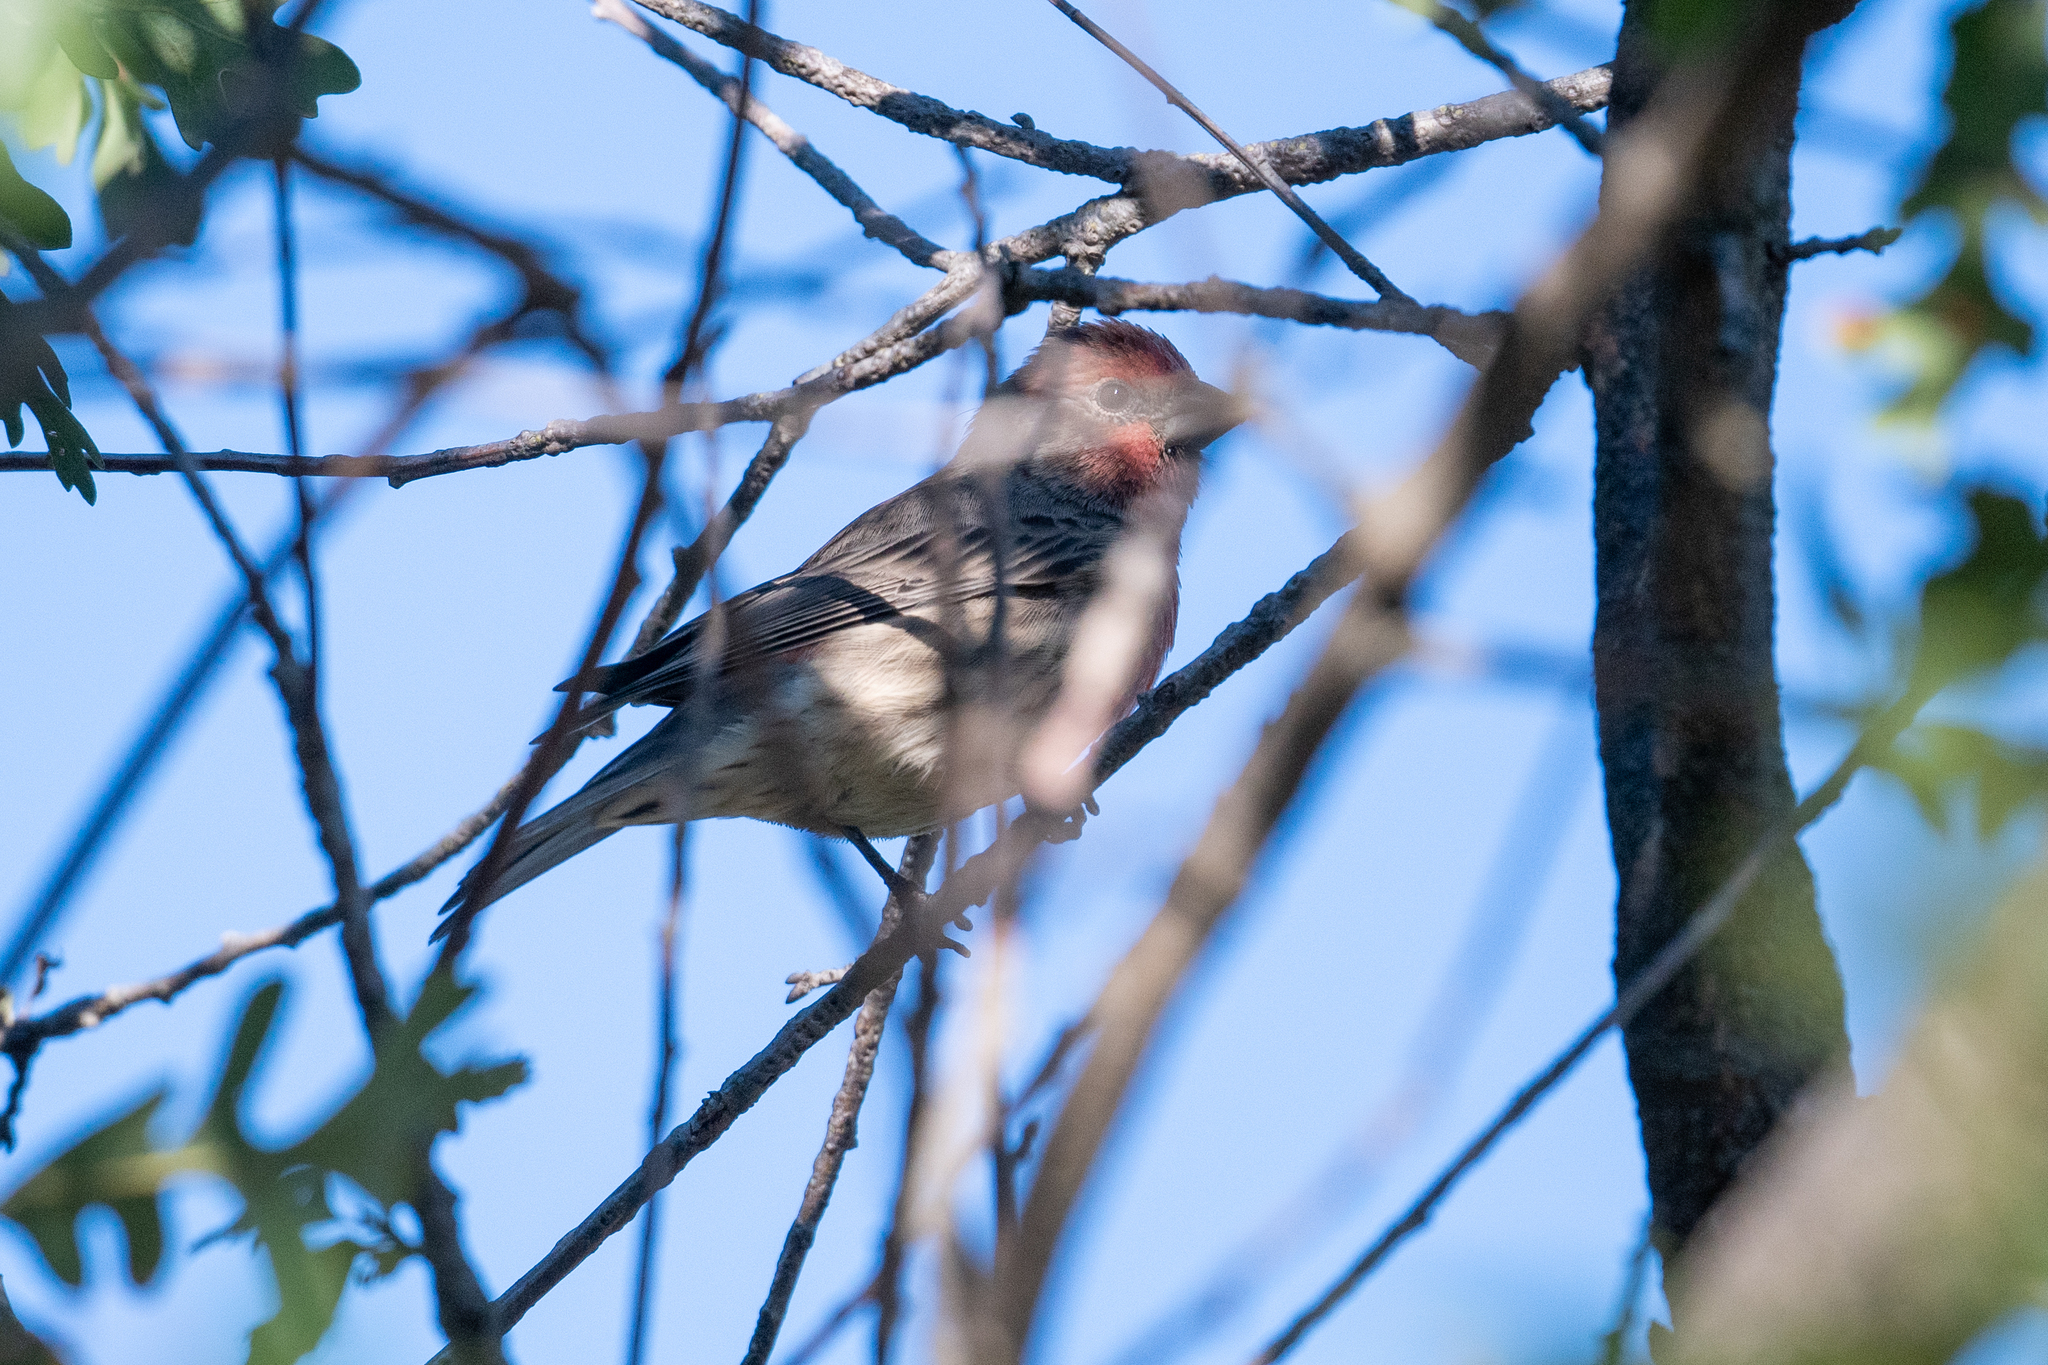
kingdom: Animalia
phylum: Chordata
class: Aves
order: Passeriformes
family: Fringillidae
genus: Haemorhous
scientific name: Haemorhous mexicanus
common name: House finch
